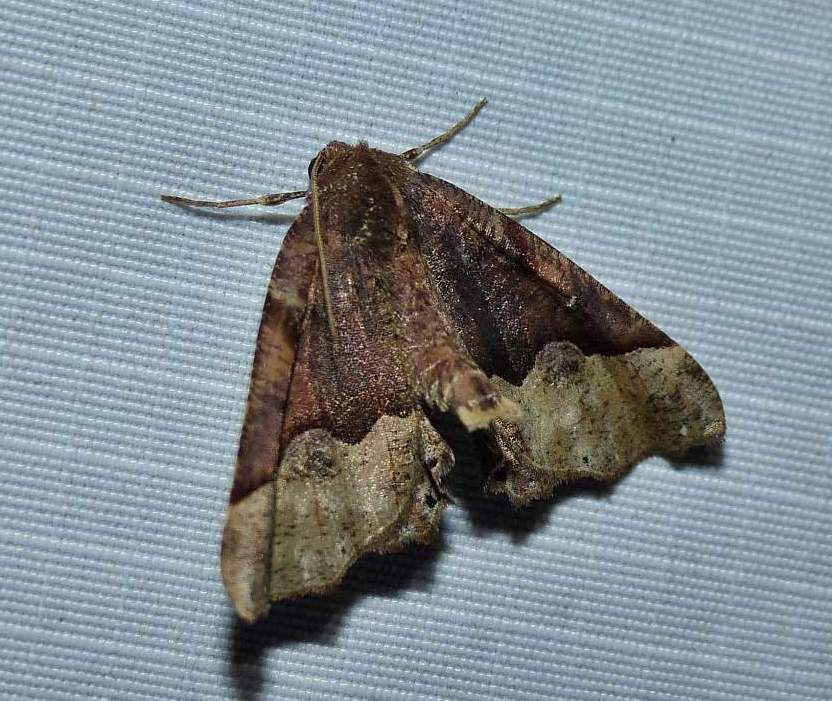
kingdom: Animalia
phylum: Arthropoda
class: Insecta
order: Lepidoptera
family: Geometridae
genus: Pero
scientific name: Pero honestaria
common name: Honest pero
